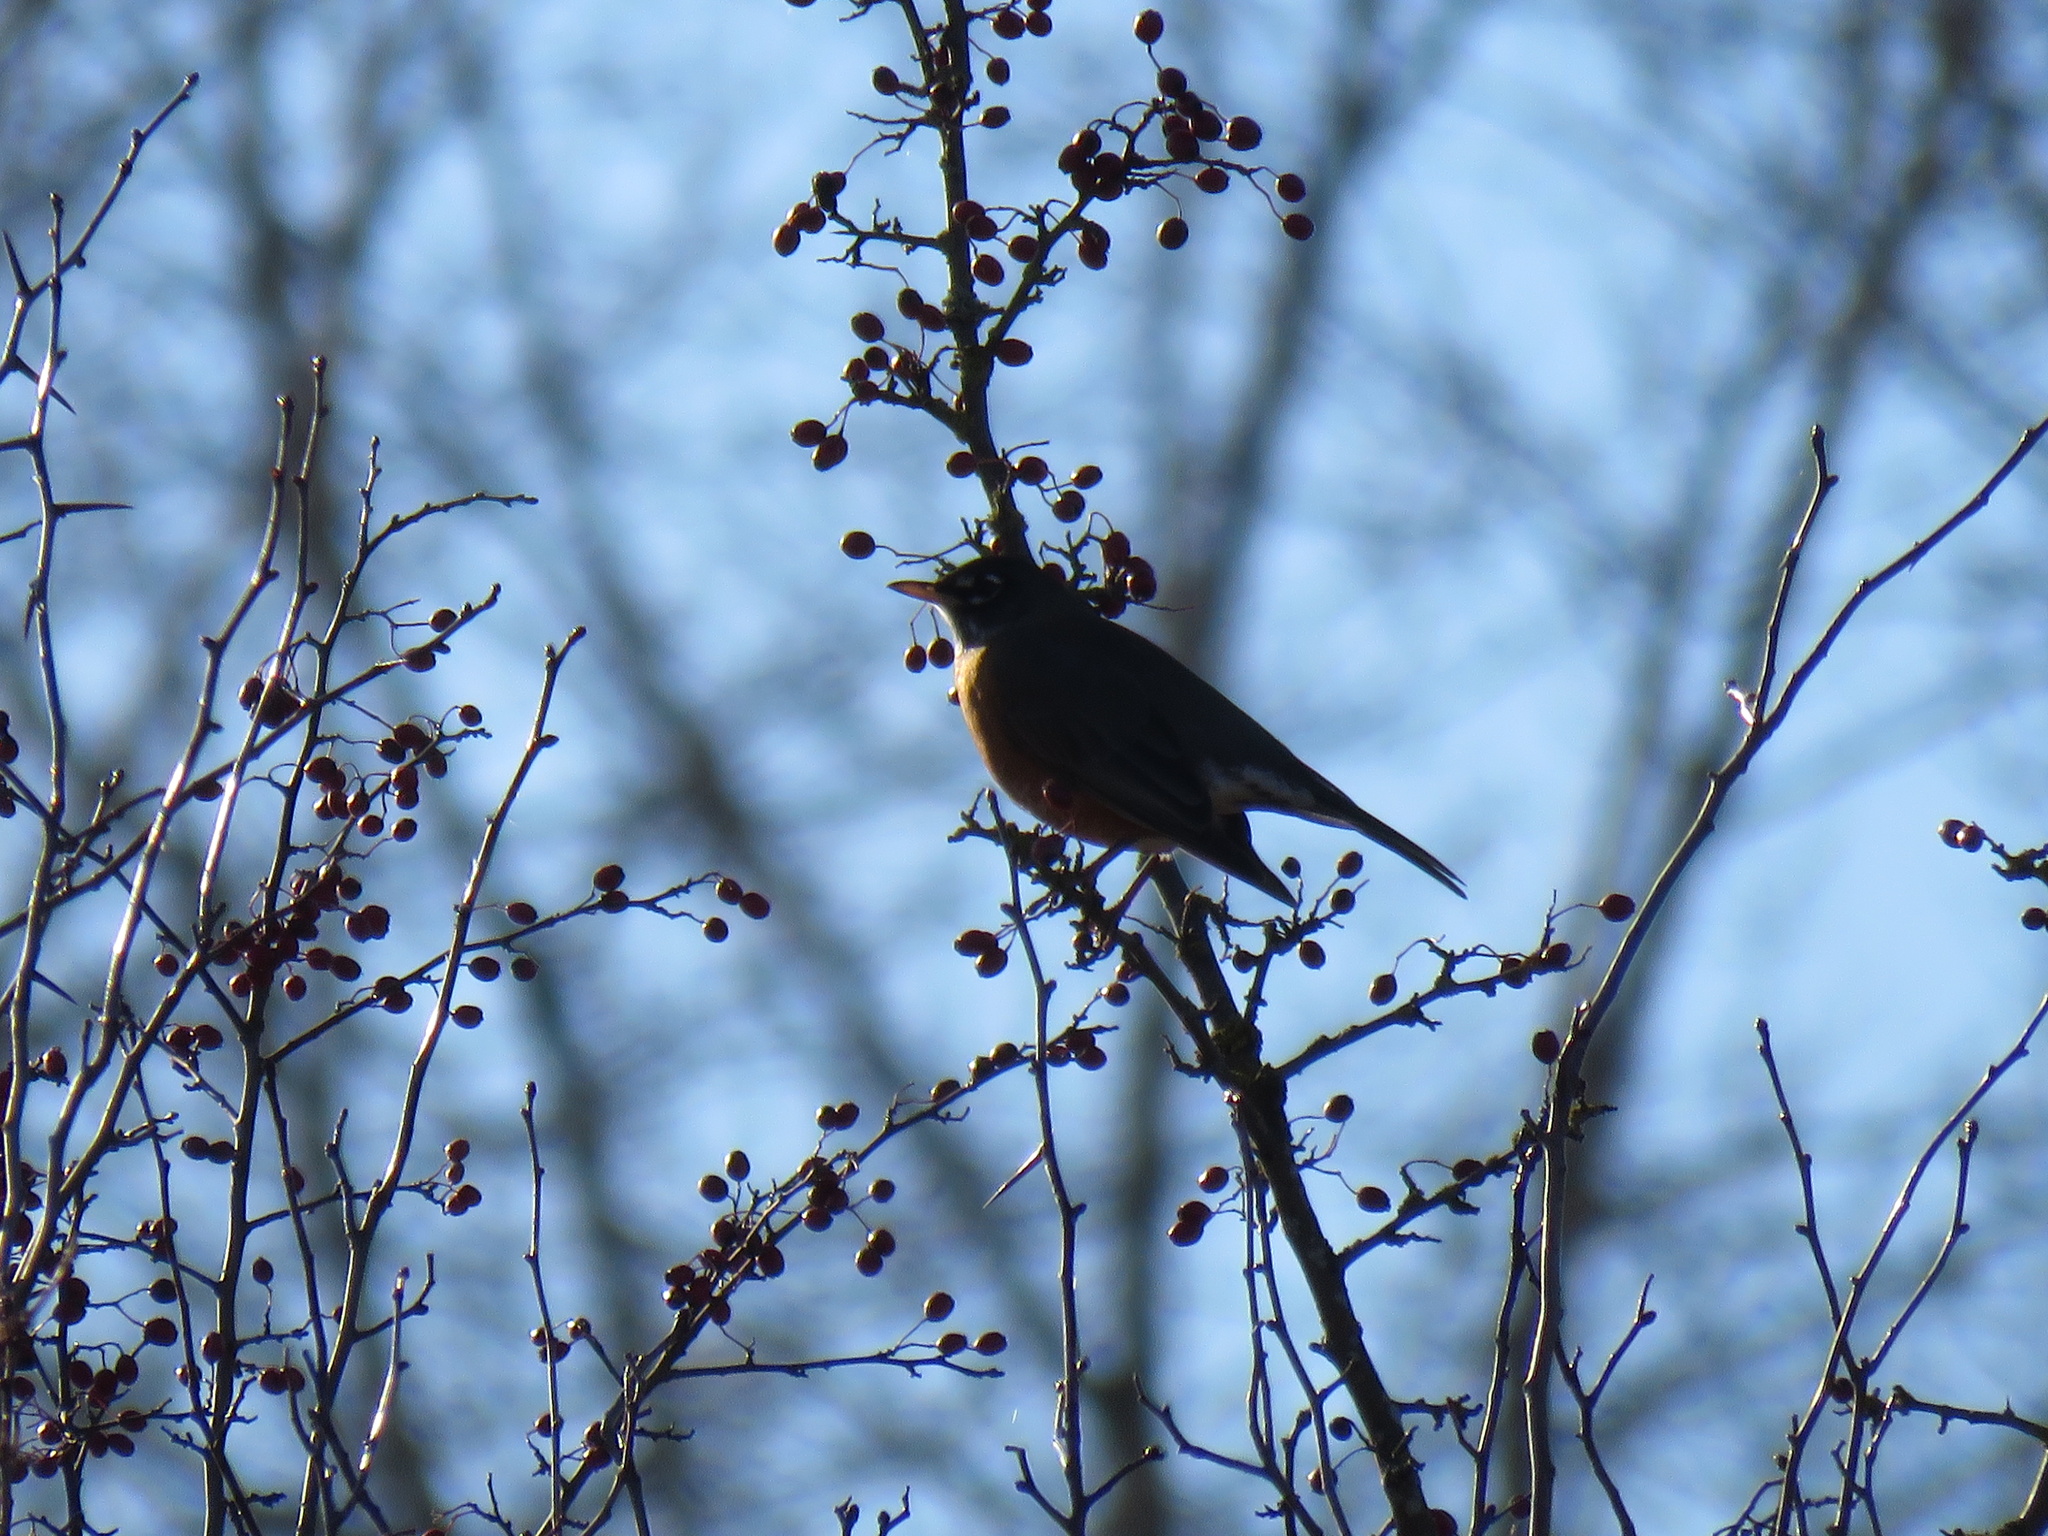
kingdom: Animalia
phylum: Chordata
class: Aves
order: Passeriformes
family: Turdidae
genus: Turdus
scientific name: Turdus migratorius
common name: American robin
